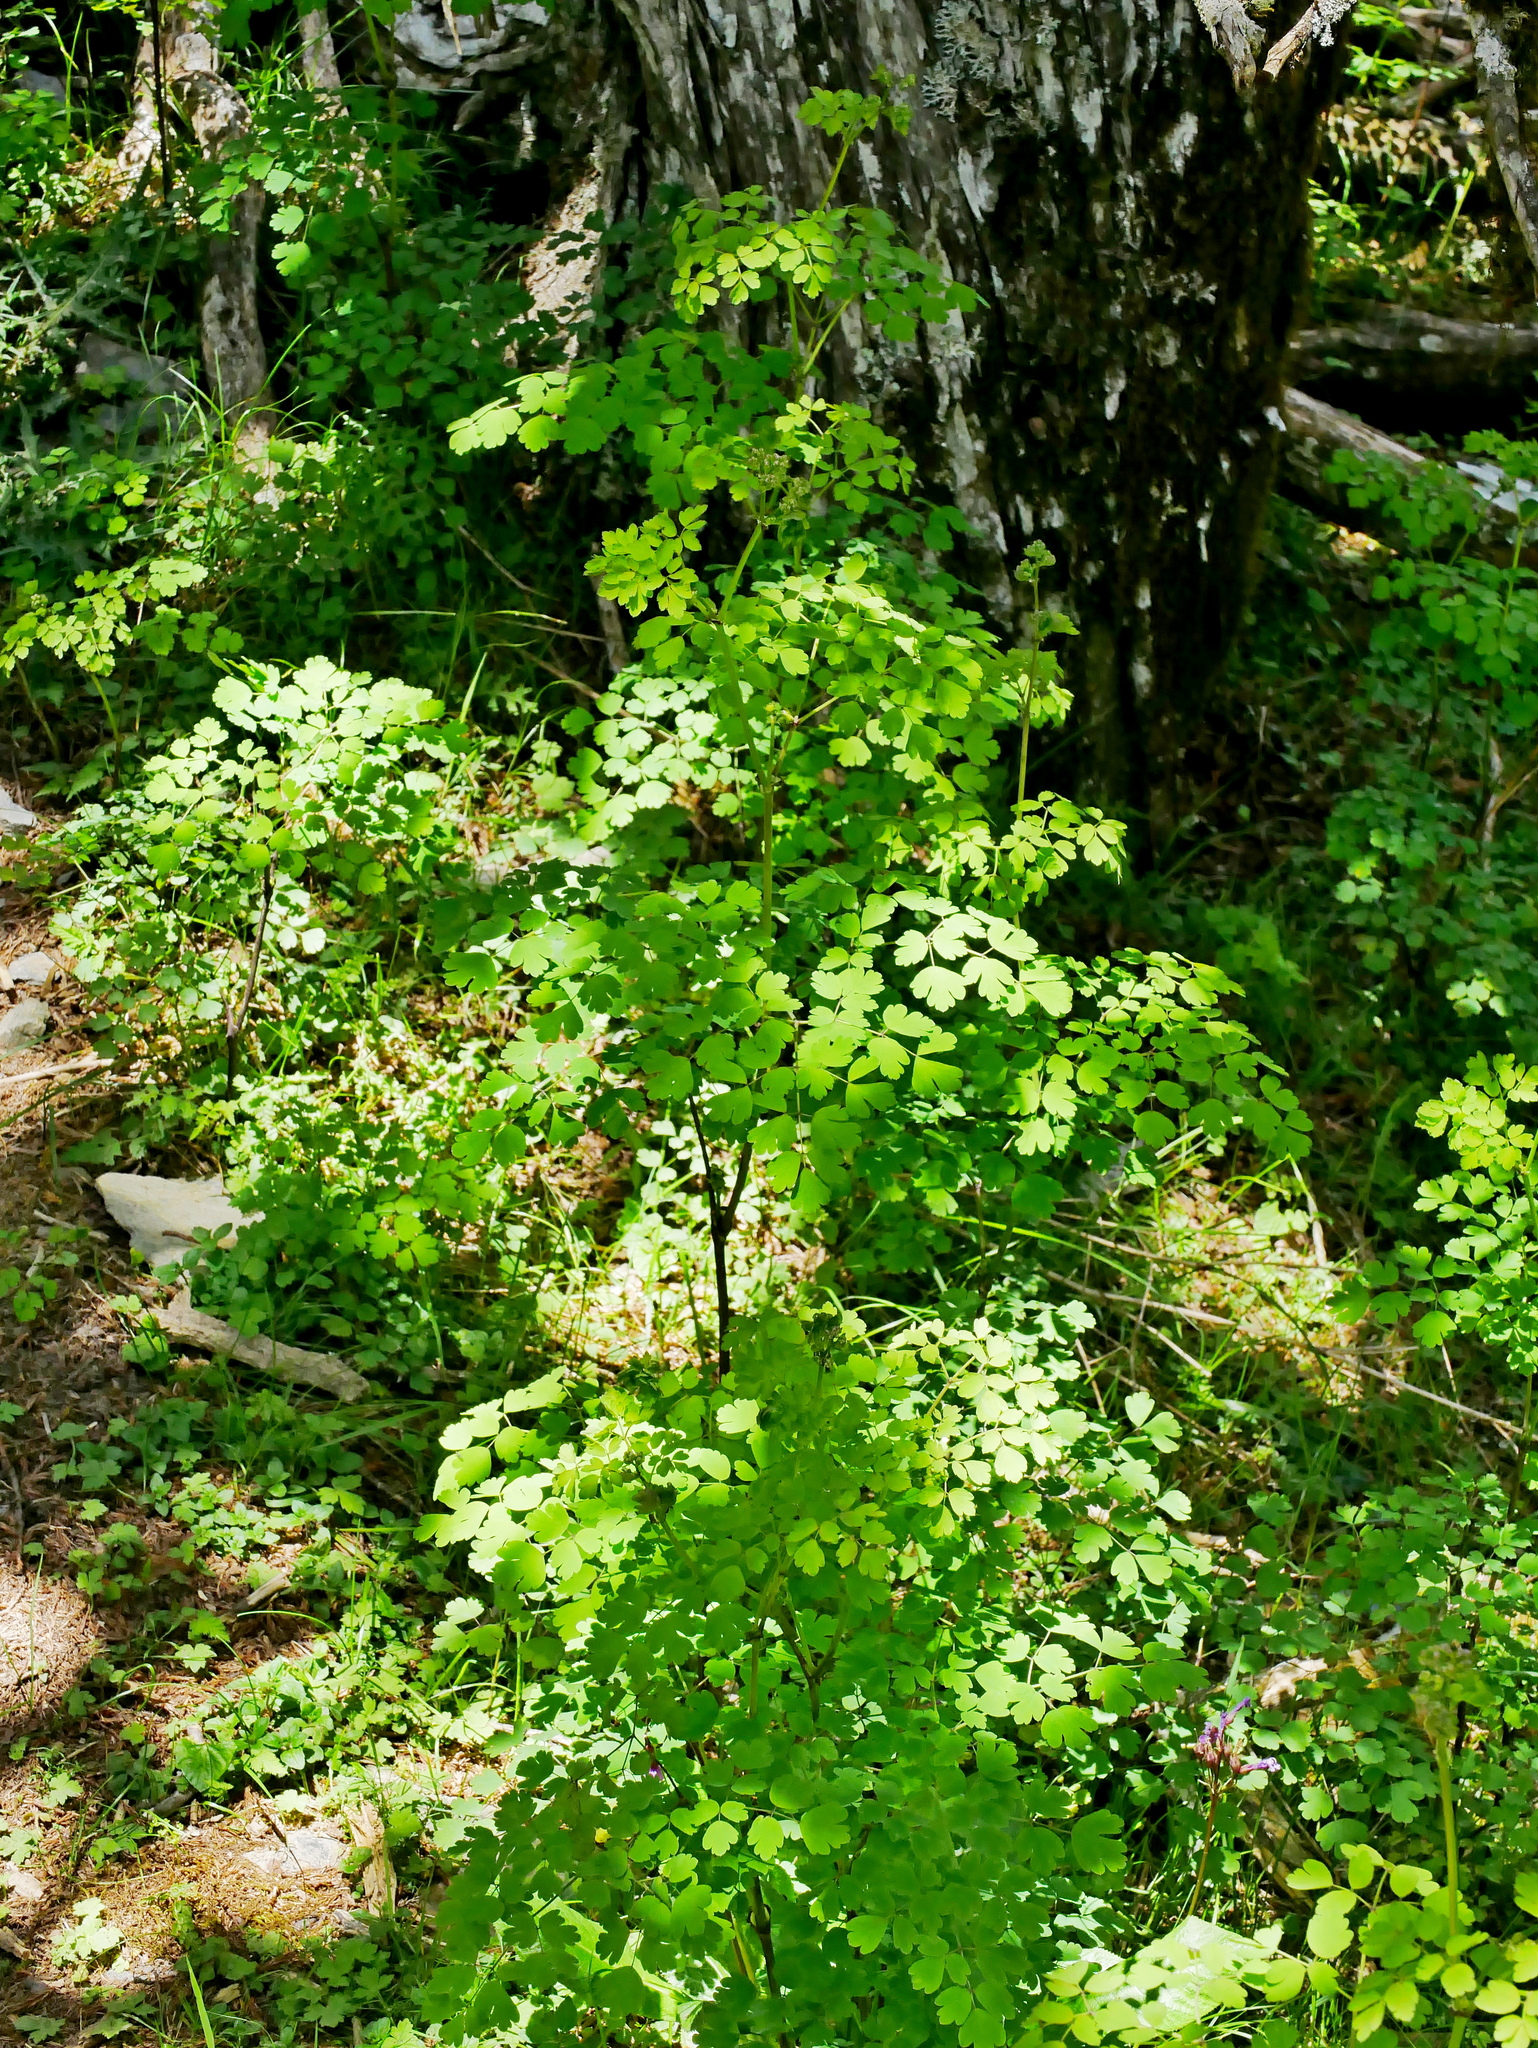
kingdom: Plantae
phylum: Tracheophyta
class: Magnoliopsida
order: Ranunculales
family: Ranunculaceae
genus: Thalictrum
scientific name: Thalictrum javanicum
